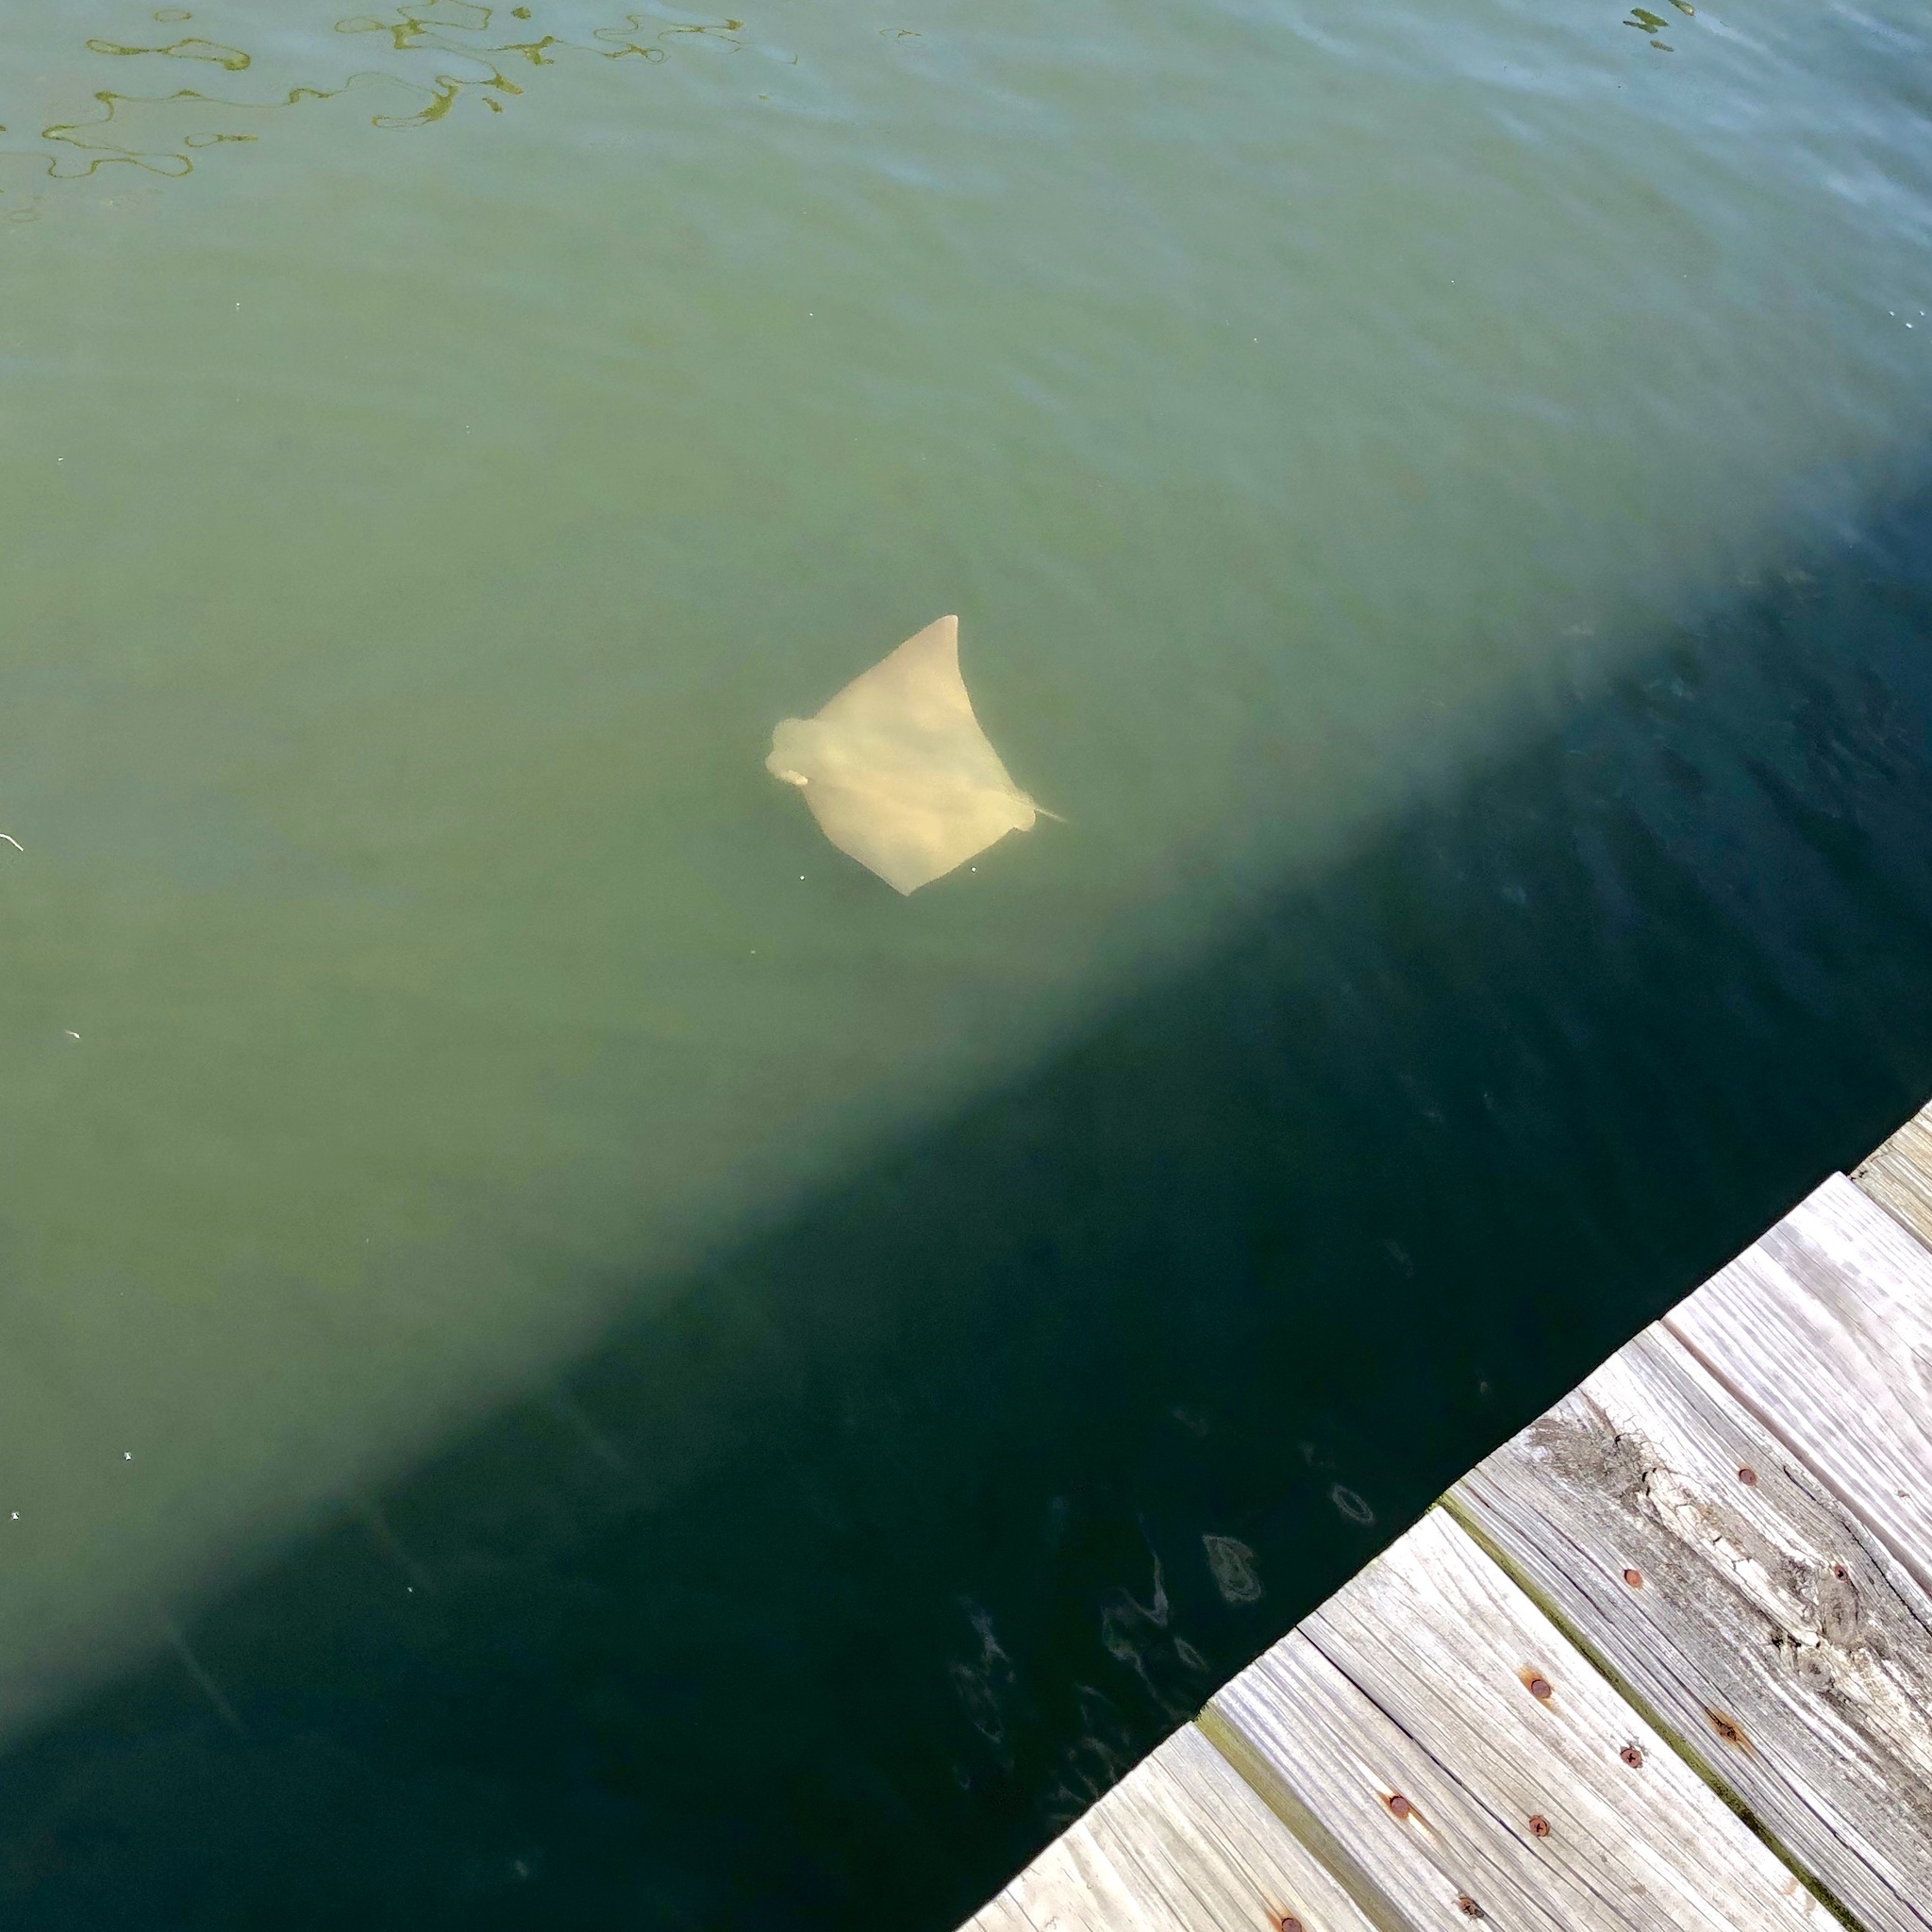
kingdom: Animalia
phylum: Chordata
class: Elasmobranchii
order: Myliobatiformes
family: Myliobatidae
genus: Rhinoptera
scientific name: Rhinoptera bonasus
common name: Cownose ray
